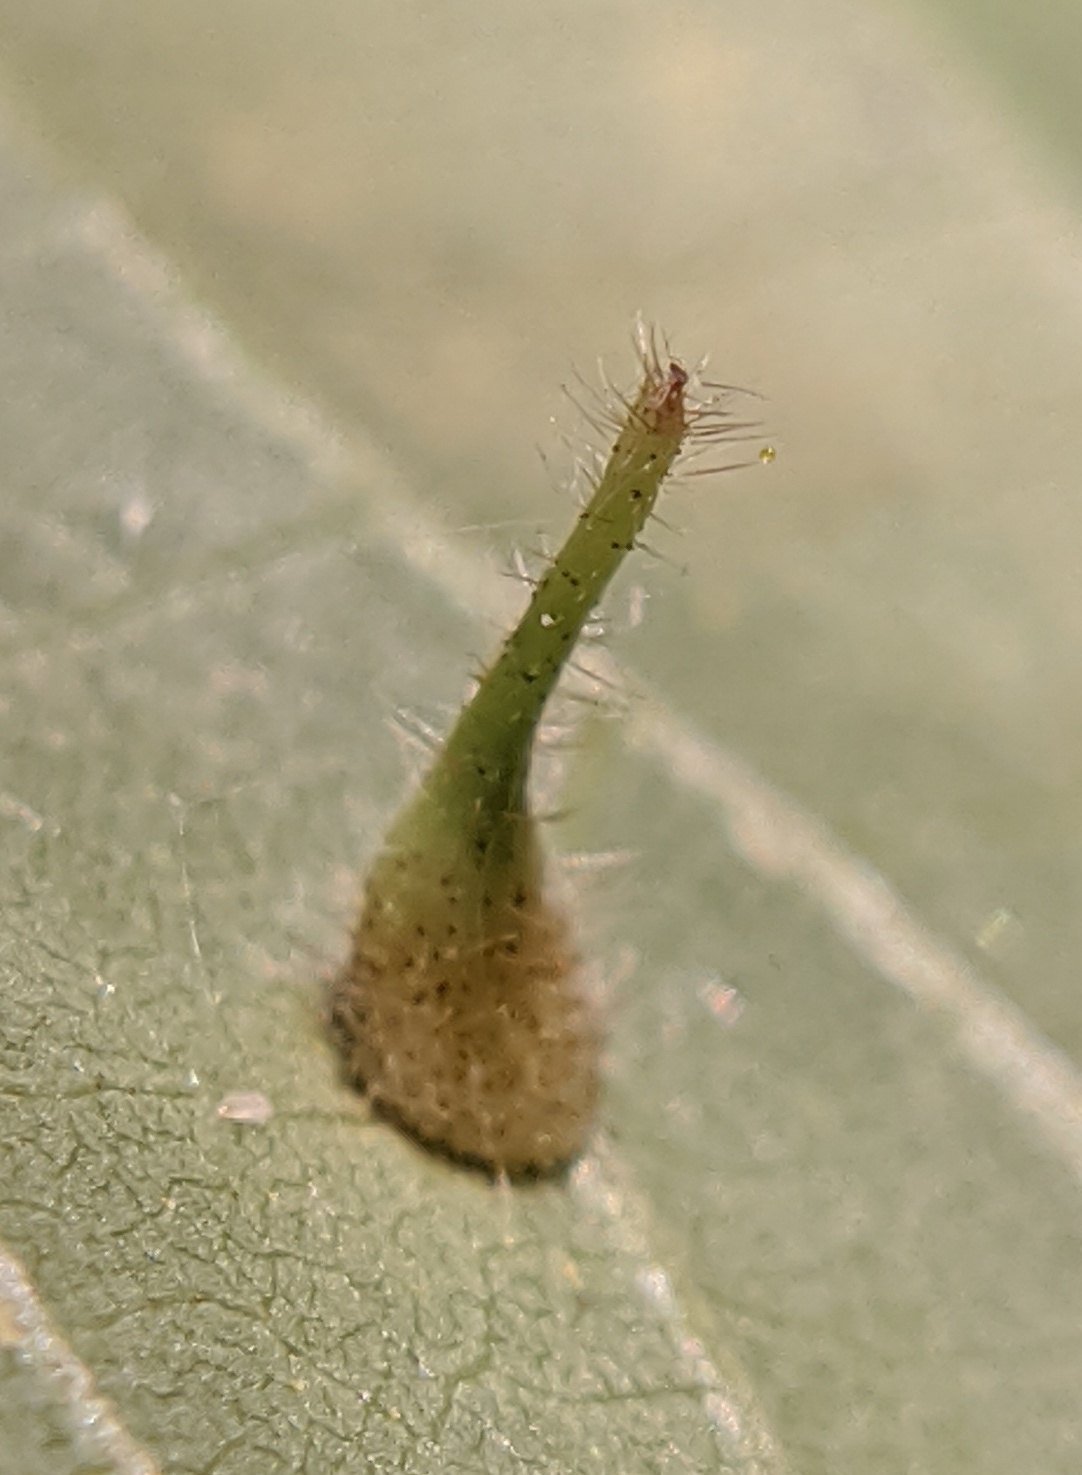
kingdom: Animalia
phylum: Arthropoda
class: Insecta
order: Diptera
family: Cecidomyiidae
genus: Caryomyia
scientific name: Caryomyia inclinata
